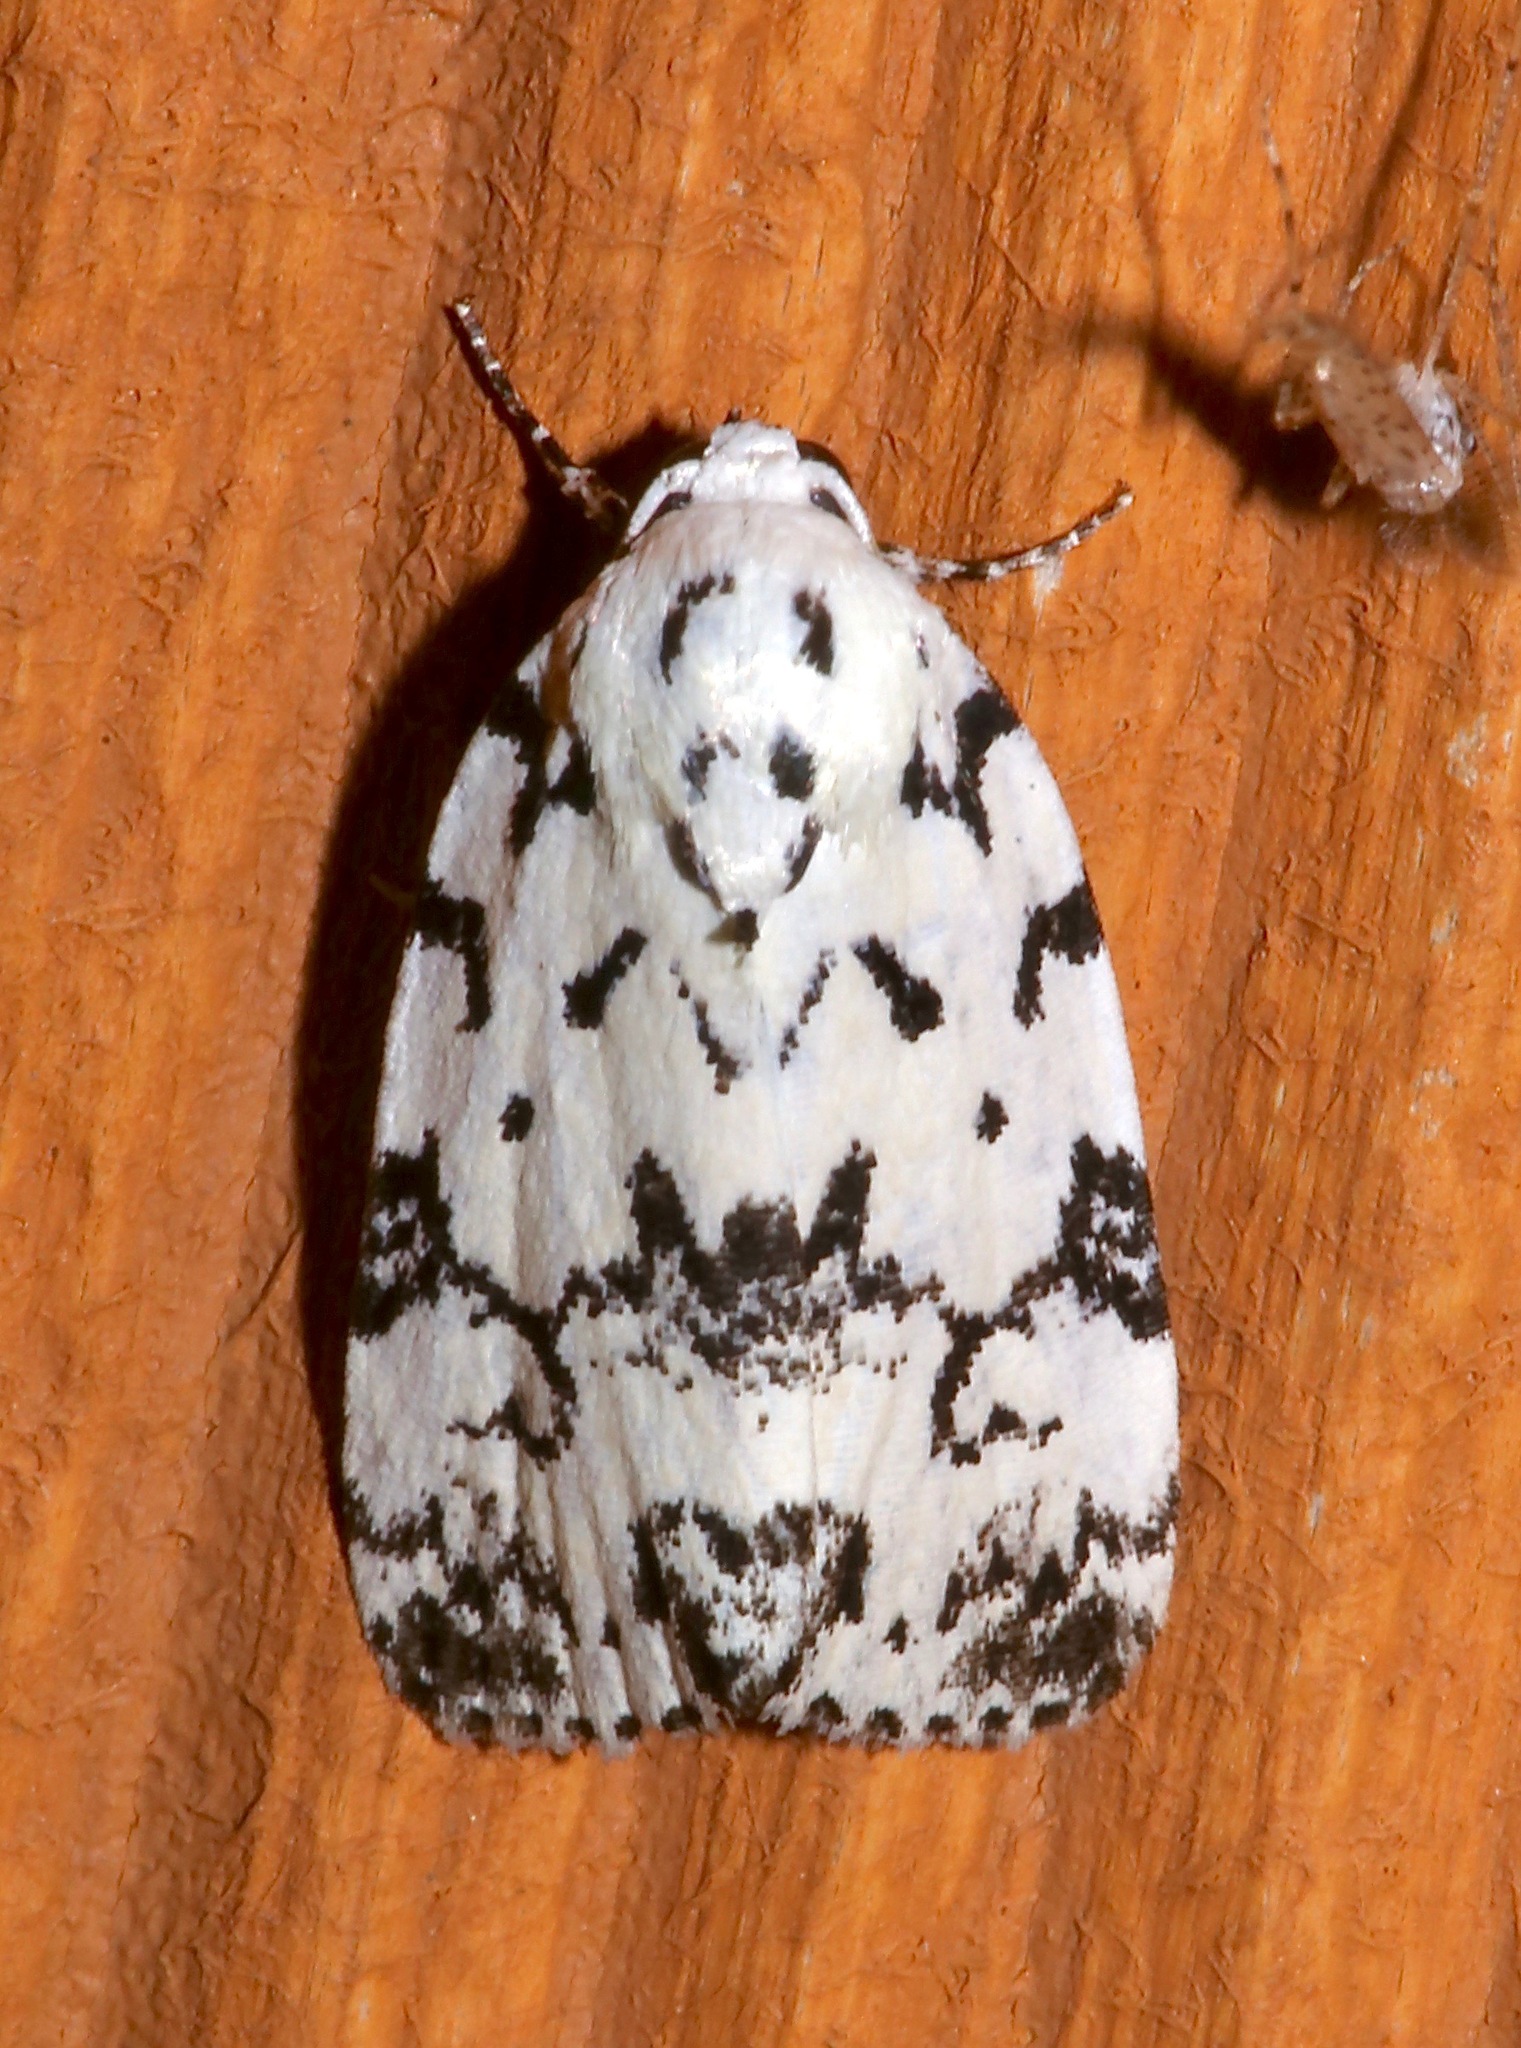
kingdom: Animalia
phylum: Arthropoda
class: Insecta
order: Lepidoptera
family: Noctuidae
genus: Polygrammate
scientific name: Polygrammate hebraeicum
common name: Hebrew moth
